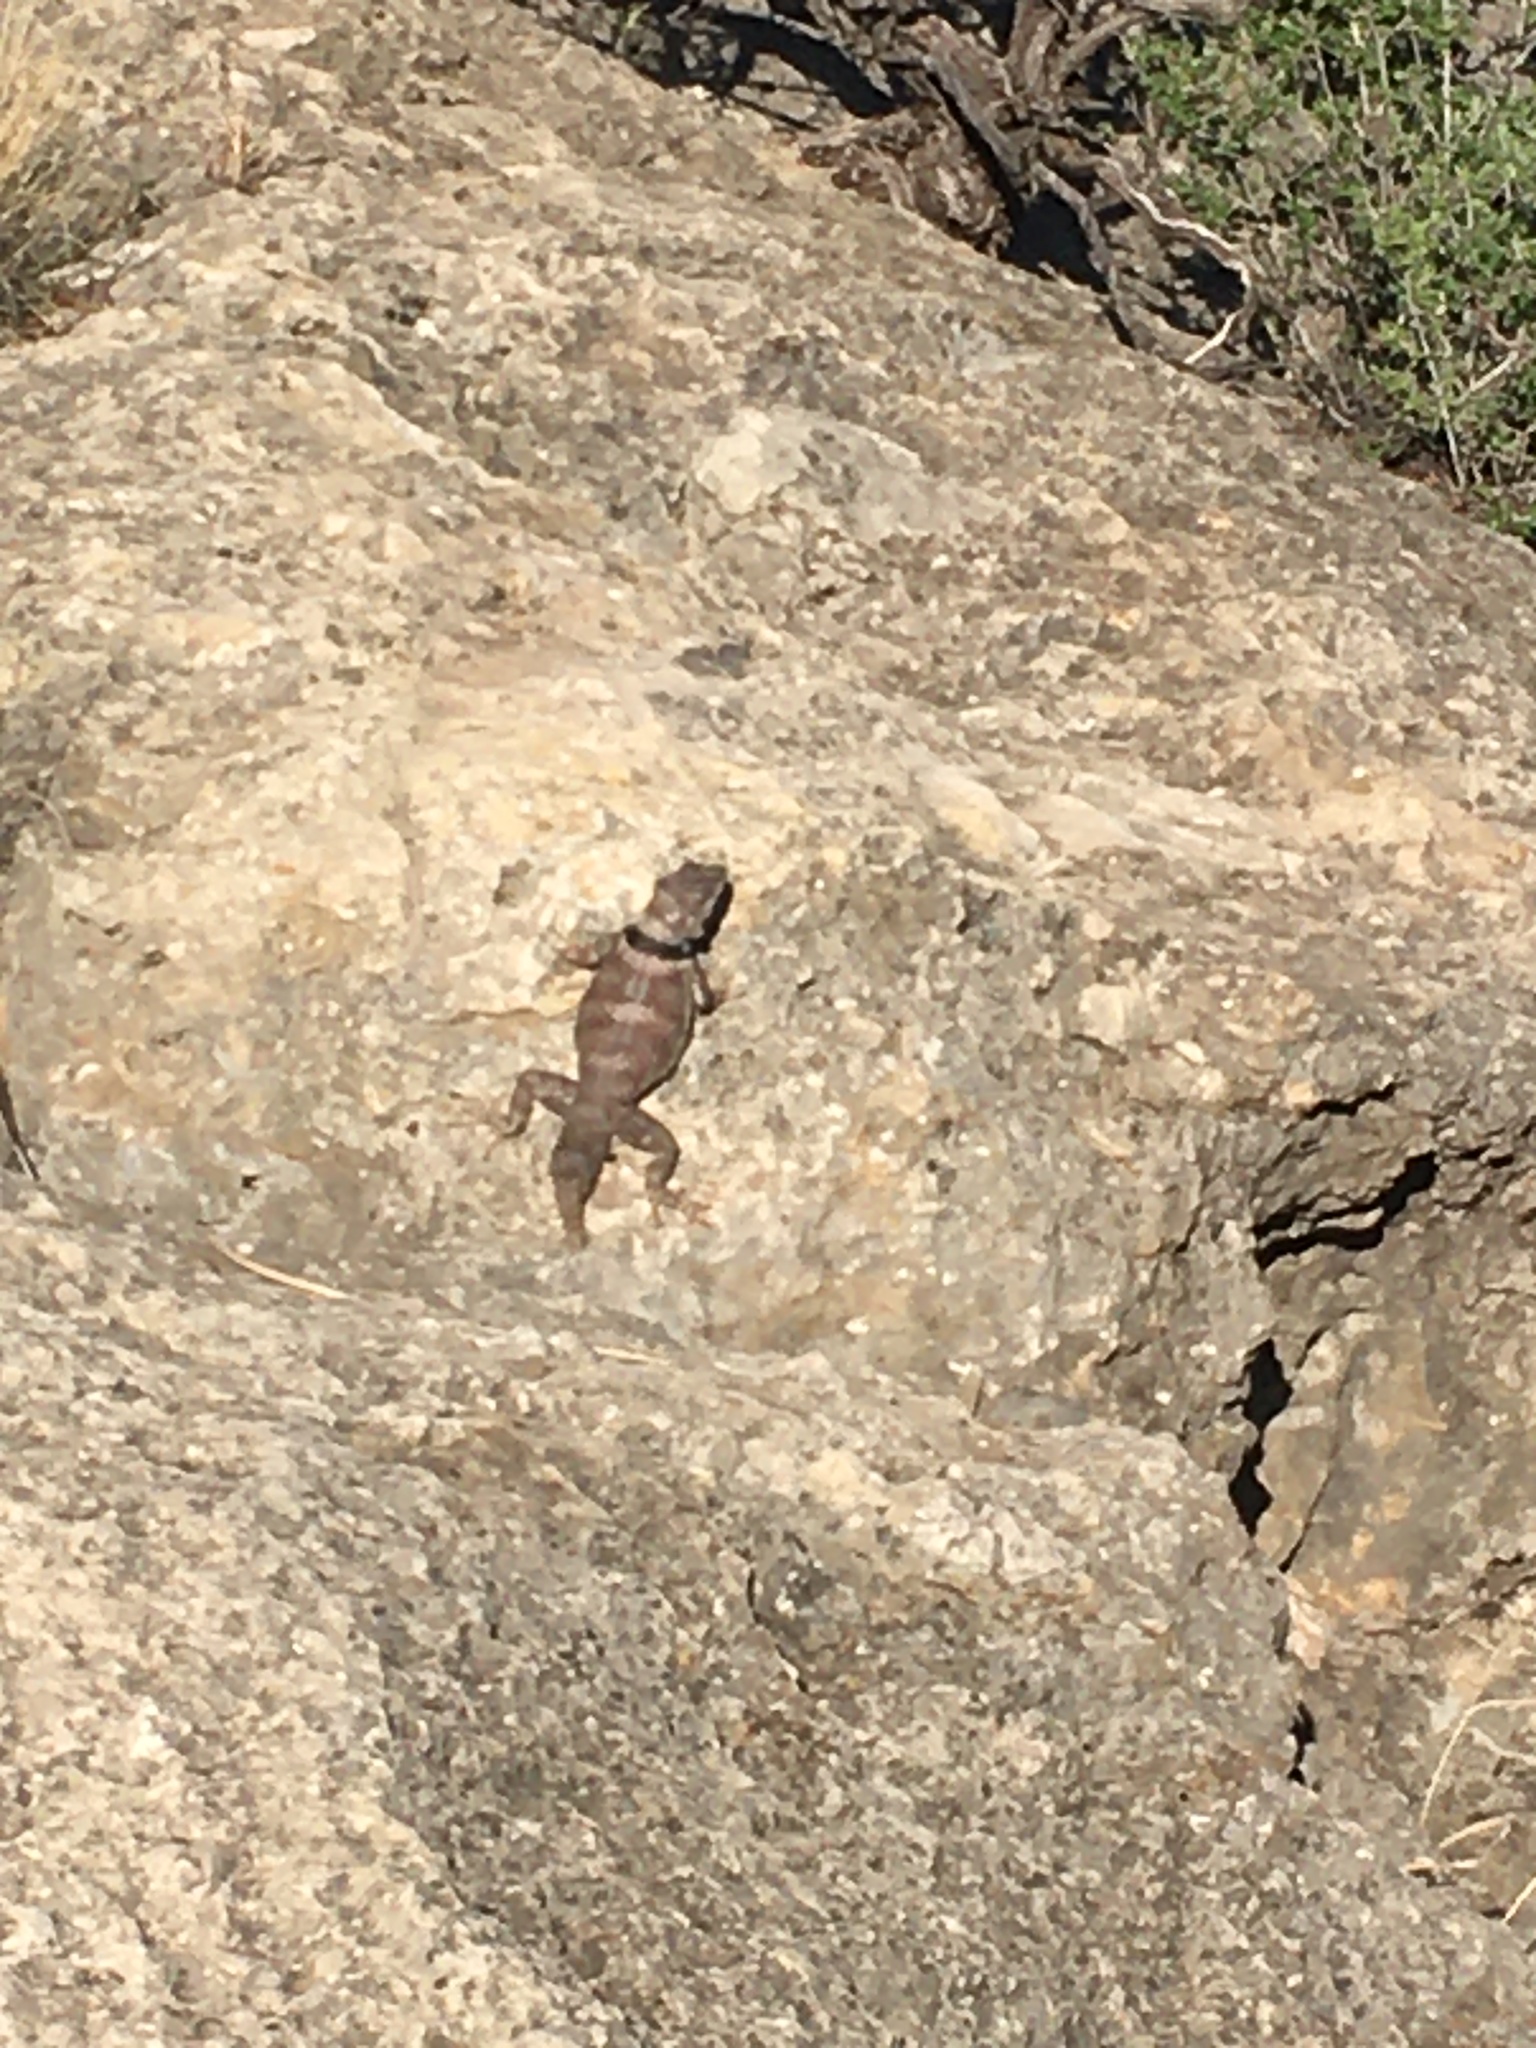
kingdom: Animalia
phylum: Chordata
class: Squamata
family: Phrynosomatidae
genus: Sceloporus
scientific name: Sceloporus poinsettii
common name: Crevice spiny lizard
